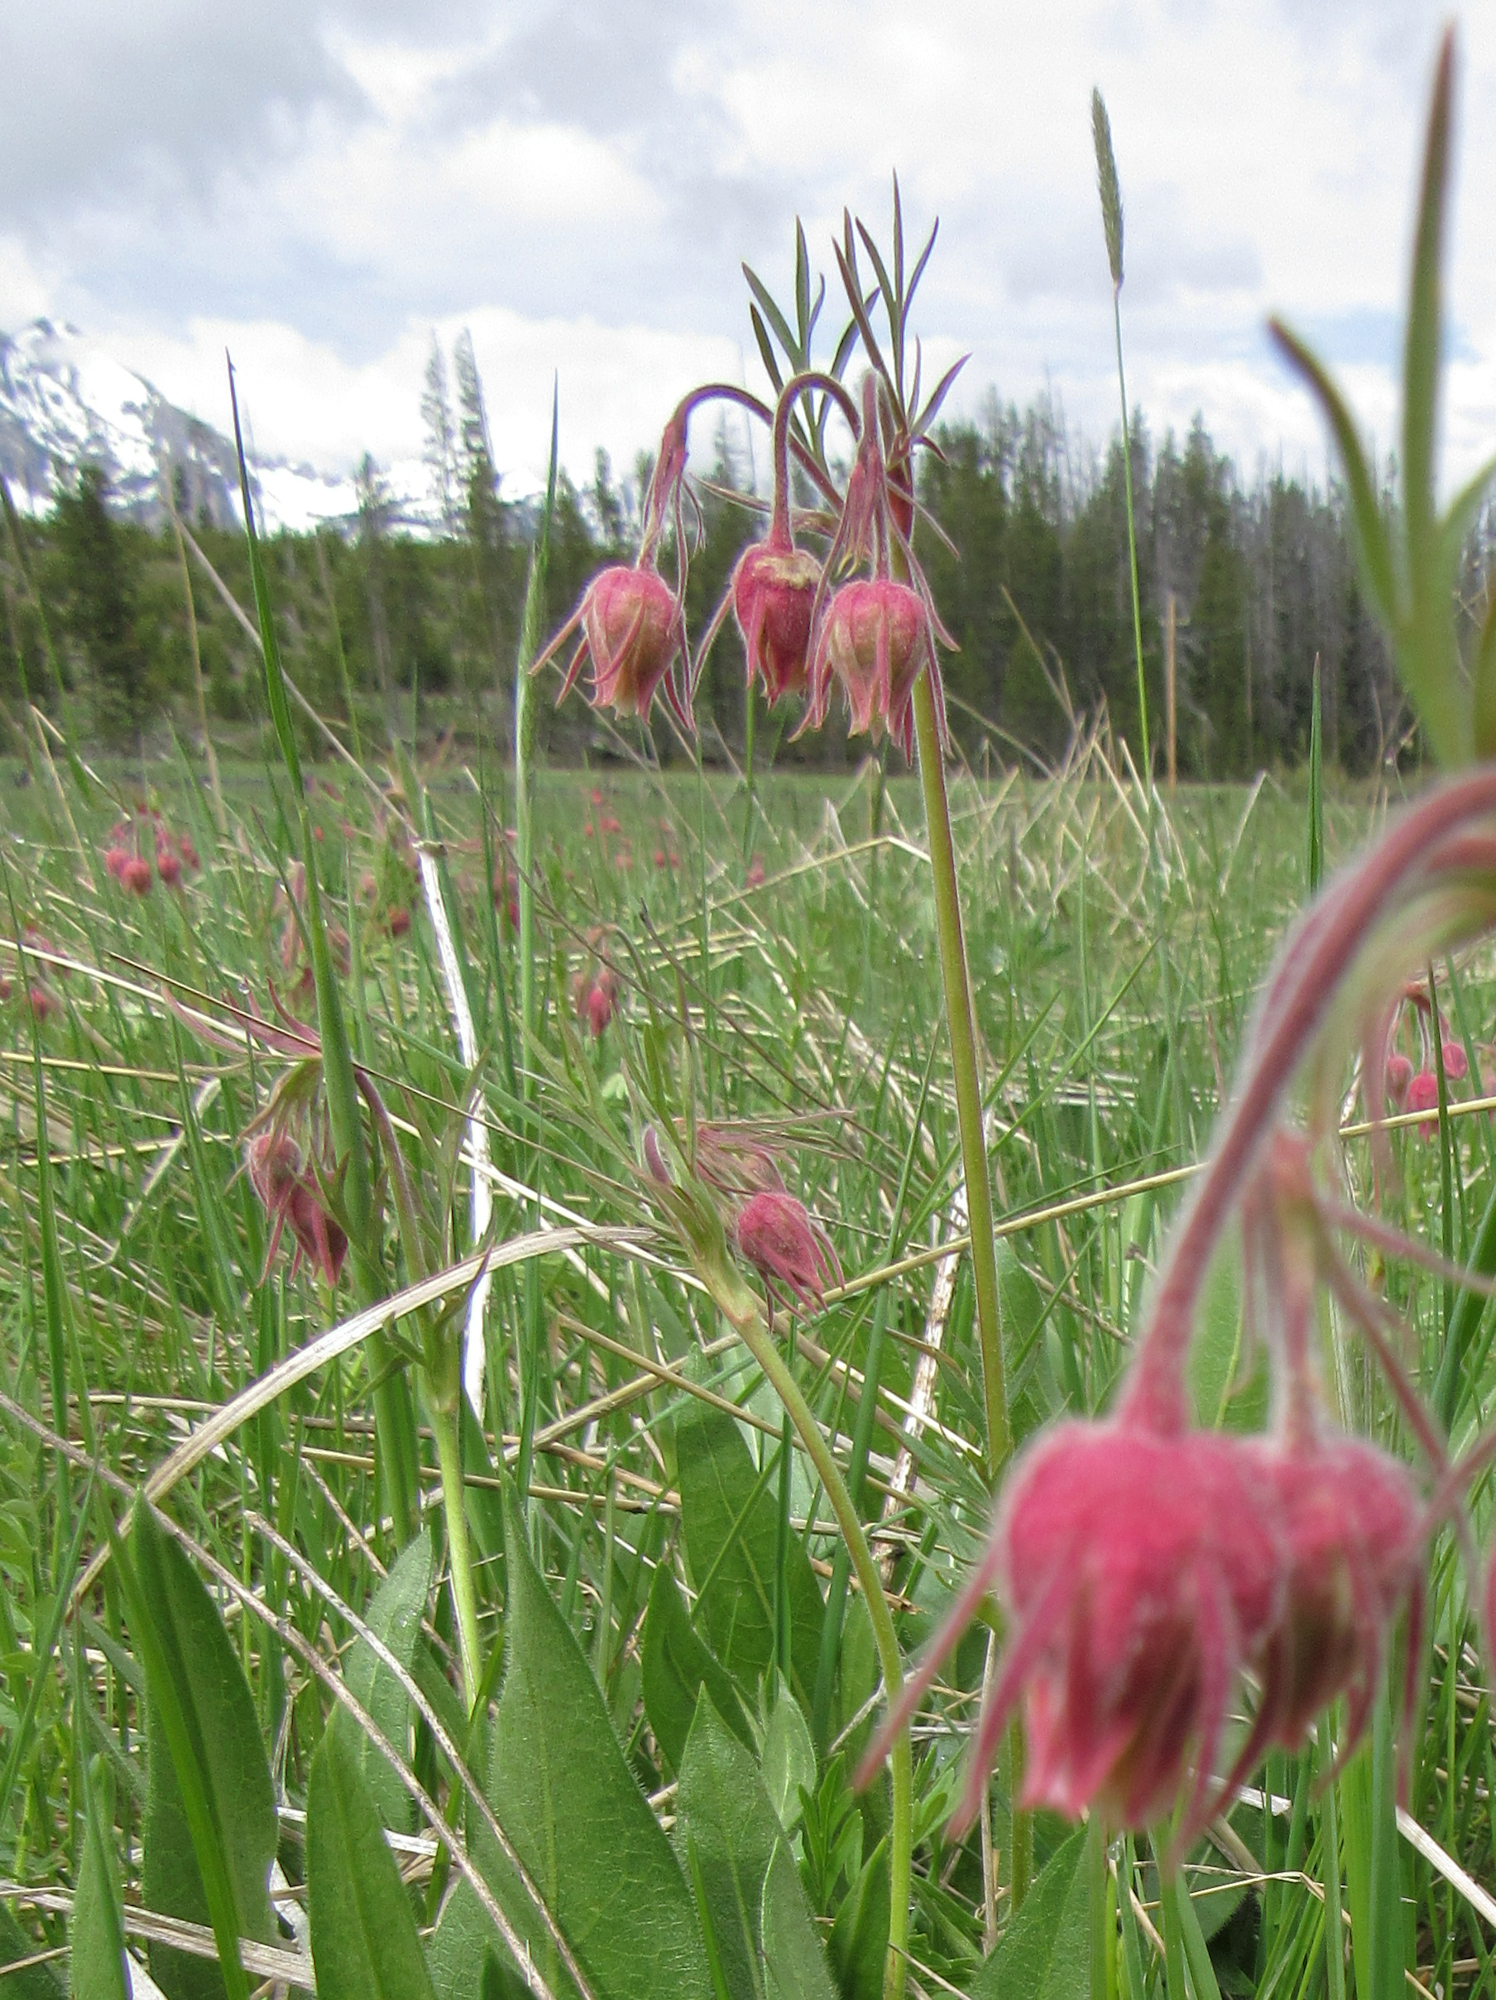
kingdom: Plantae
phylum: Tracheophyta
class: Magnoliopsida
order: Rosales
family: Rosaceae
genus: Geum
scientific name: Geum triflorum
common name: Old man's whiskers
